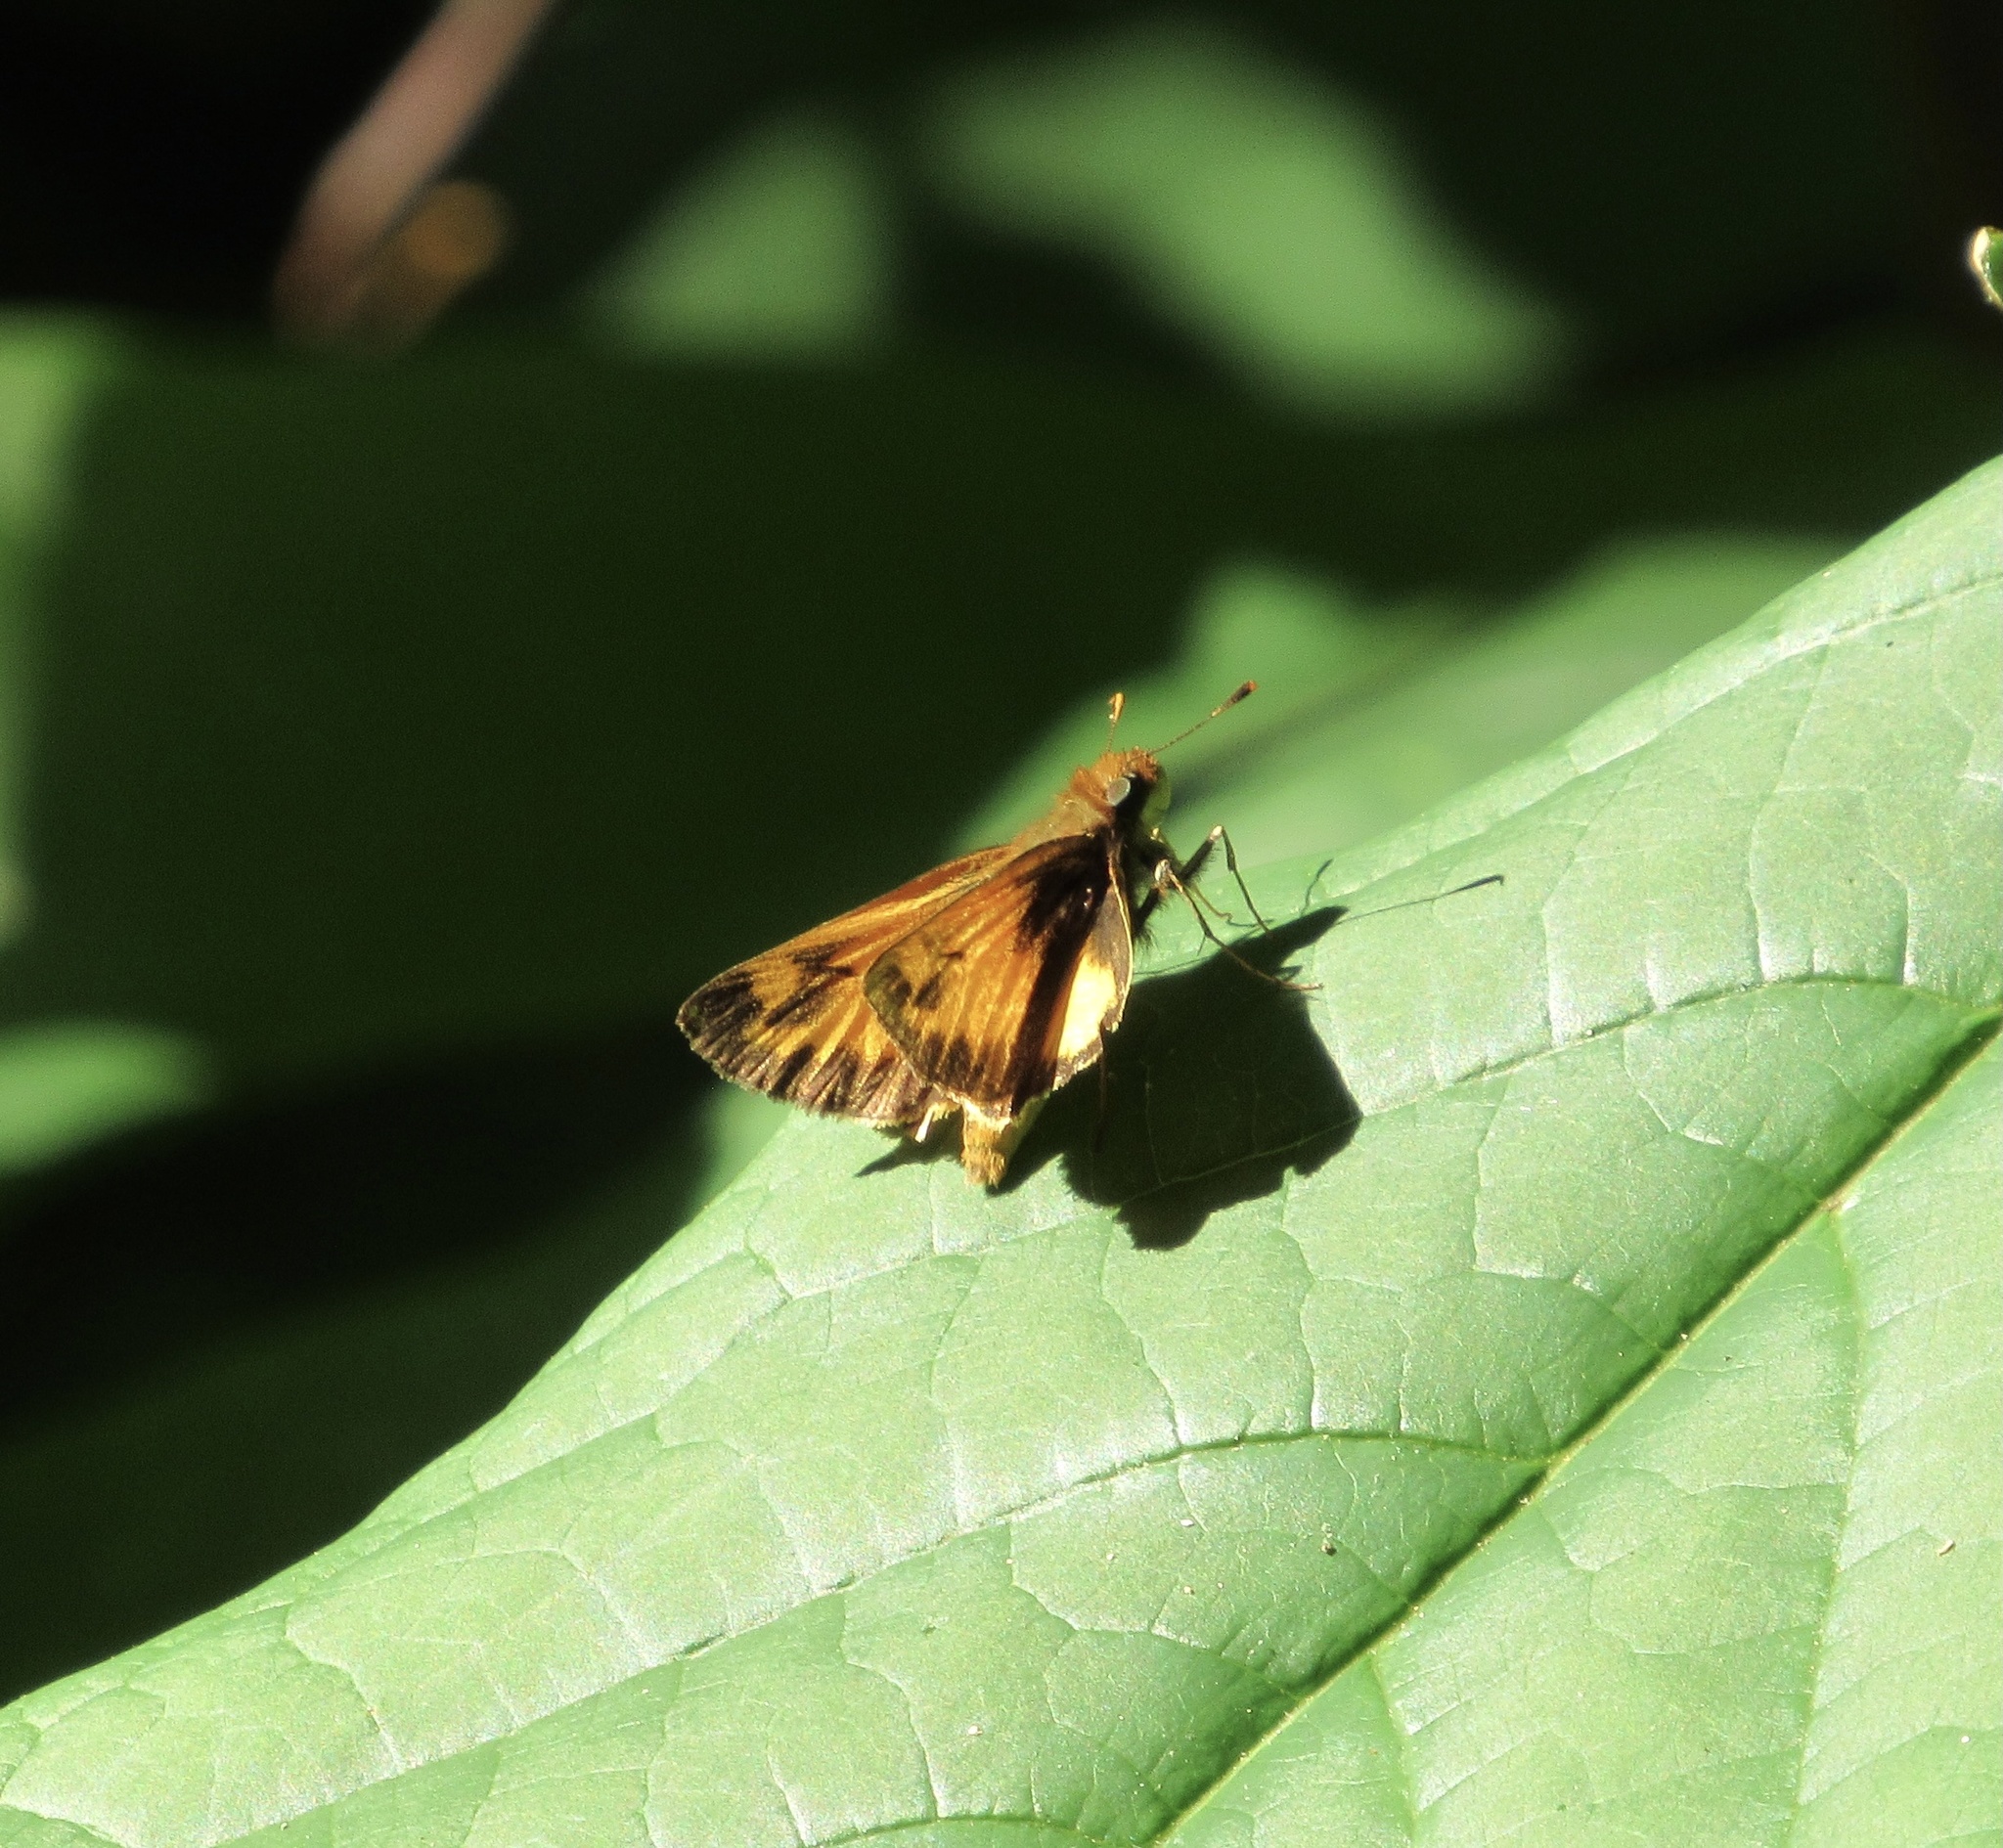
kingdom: Animalia
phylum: Arthropoda
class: Insecta
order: Lepidoptera
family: Hesperiidae
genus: Lon
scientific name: Lon zabulon
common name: Zabulon skipper
